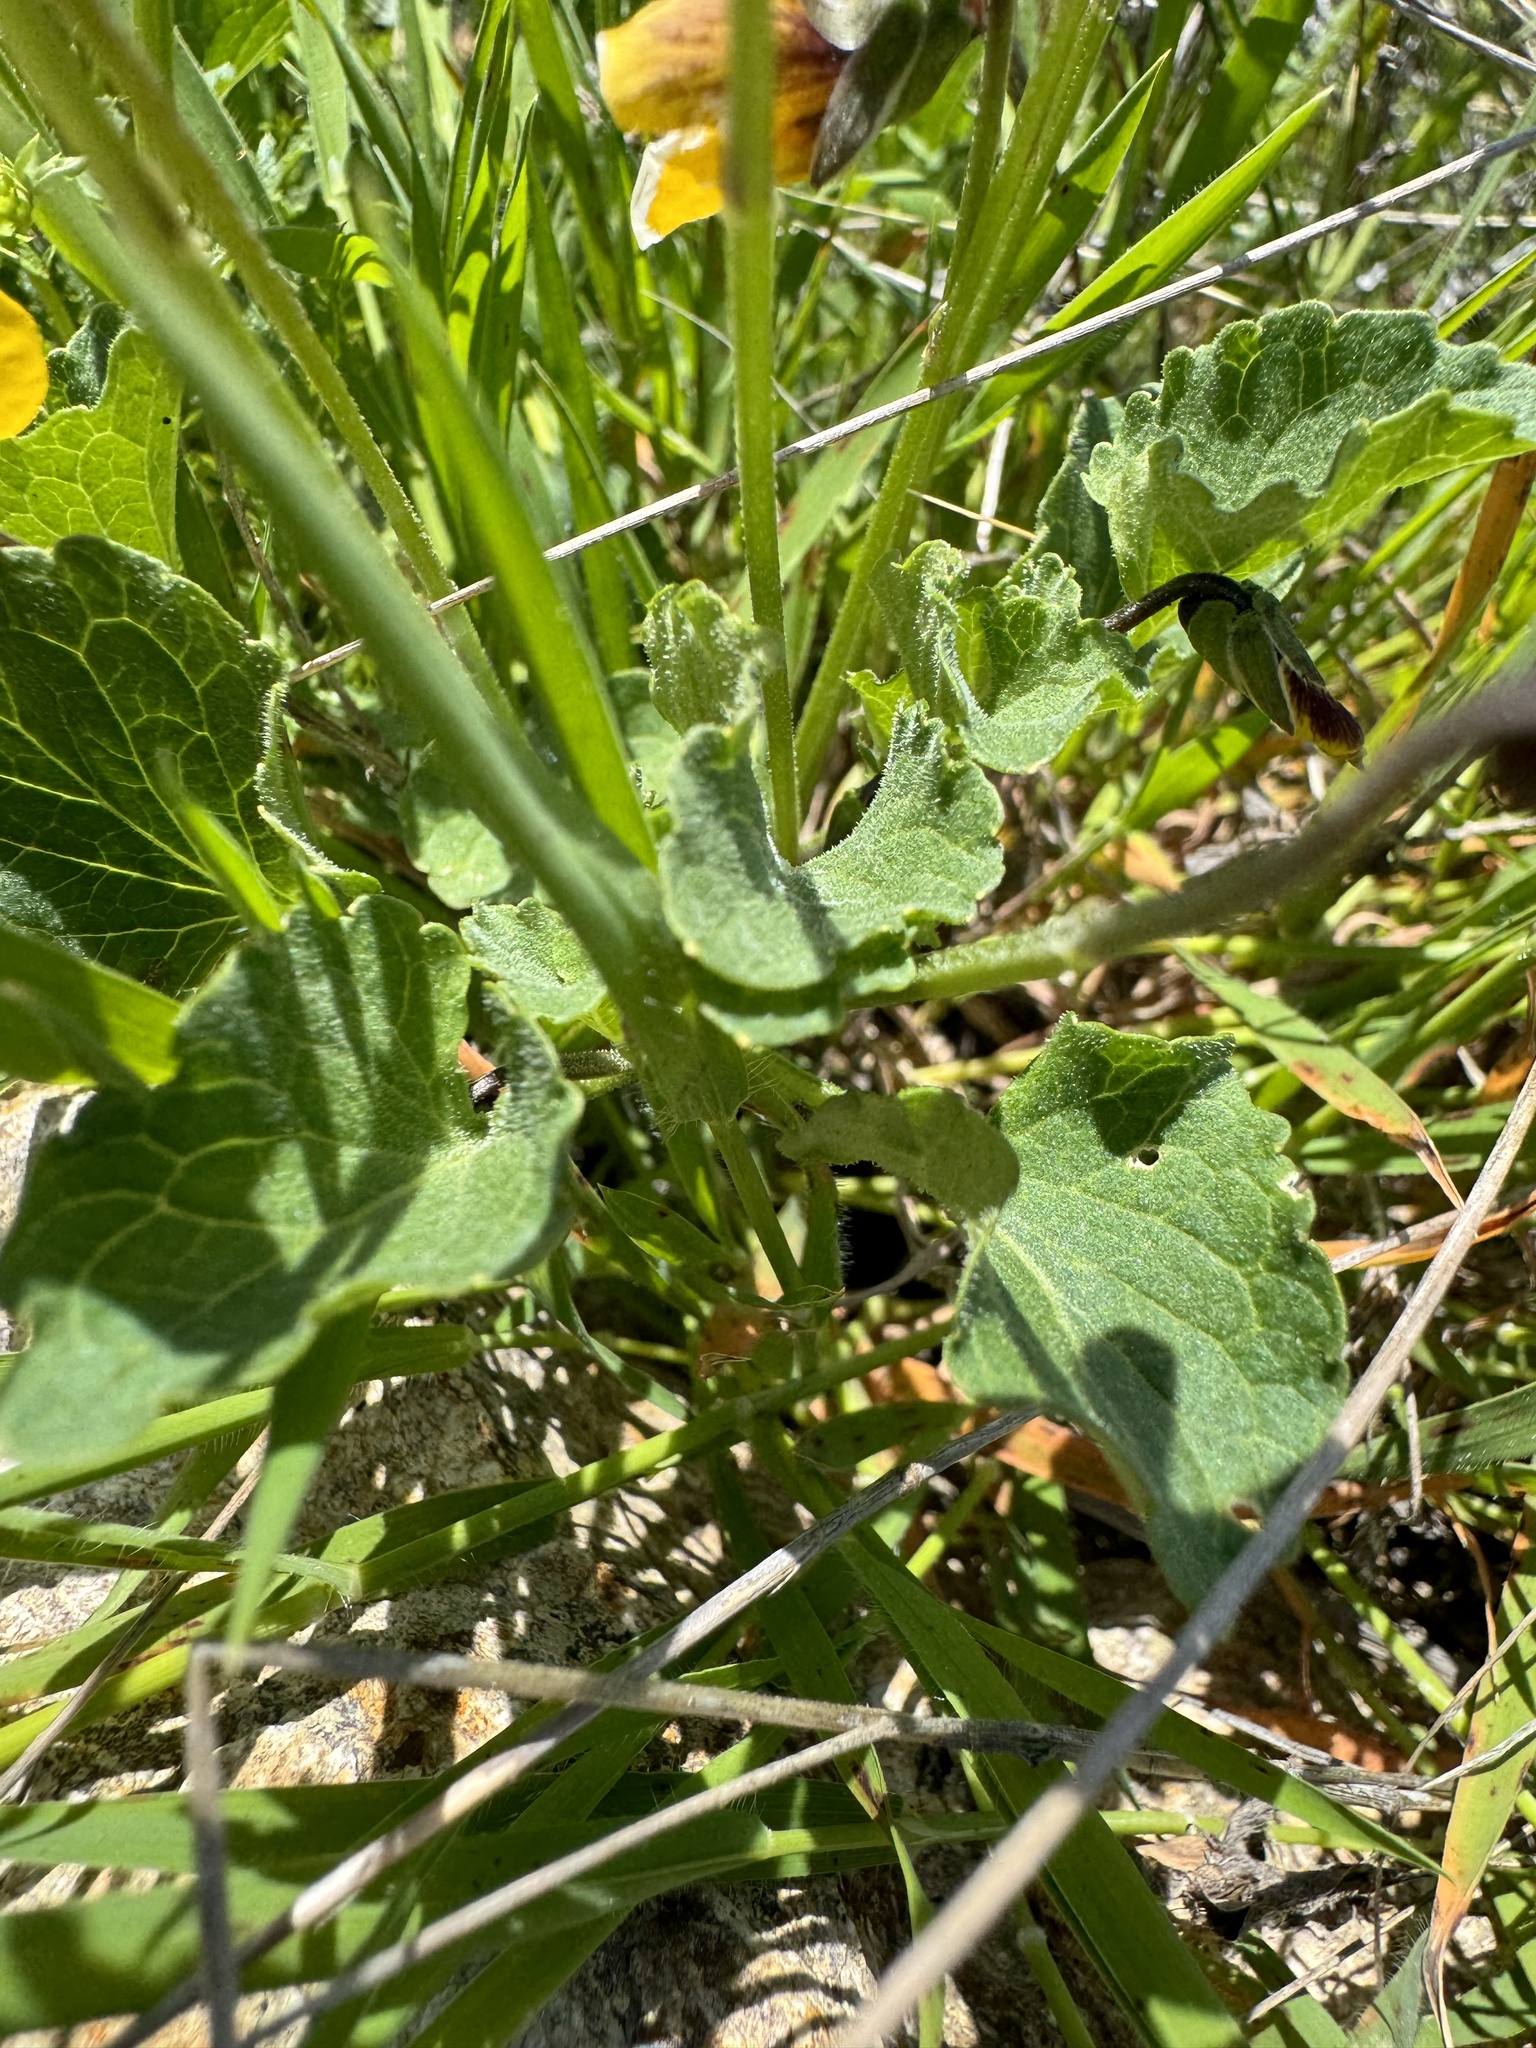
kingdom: Plantae
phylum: Tracheophyta
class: Magnoliopsida
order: Malpighiales
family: Violaceae
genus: Viola
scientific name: Viola pedunculata
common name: California golden violet
